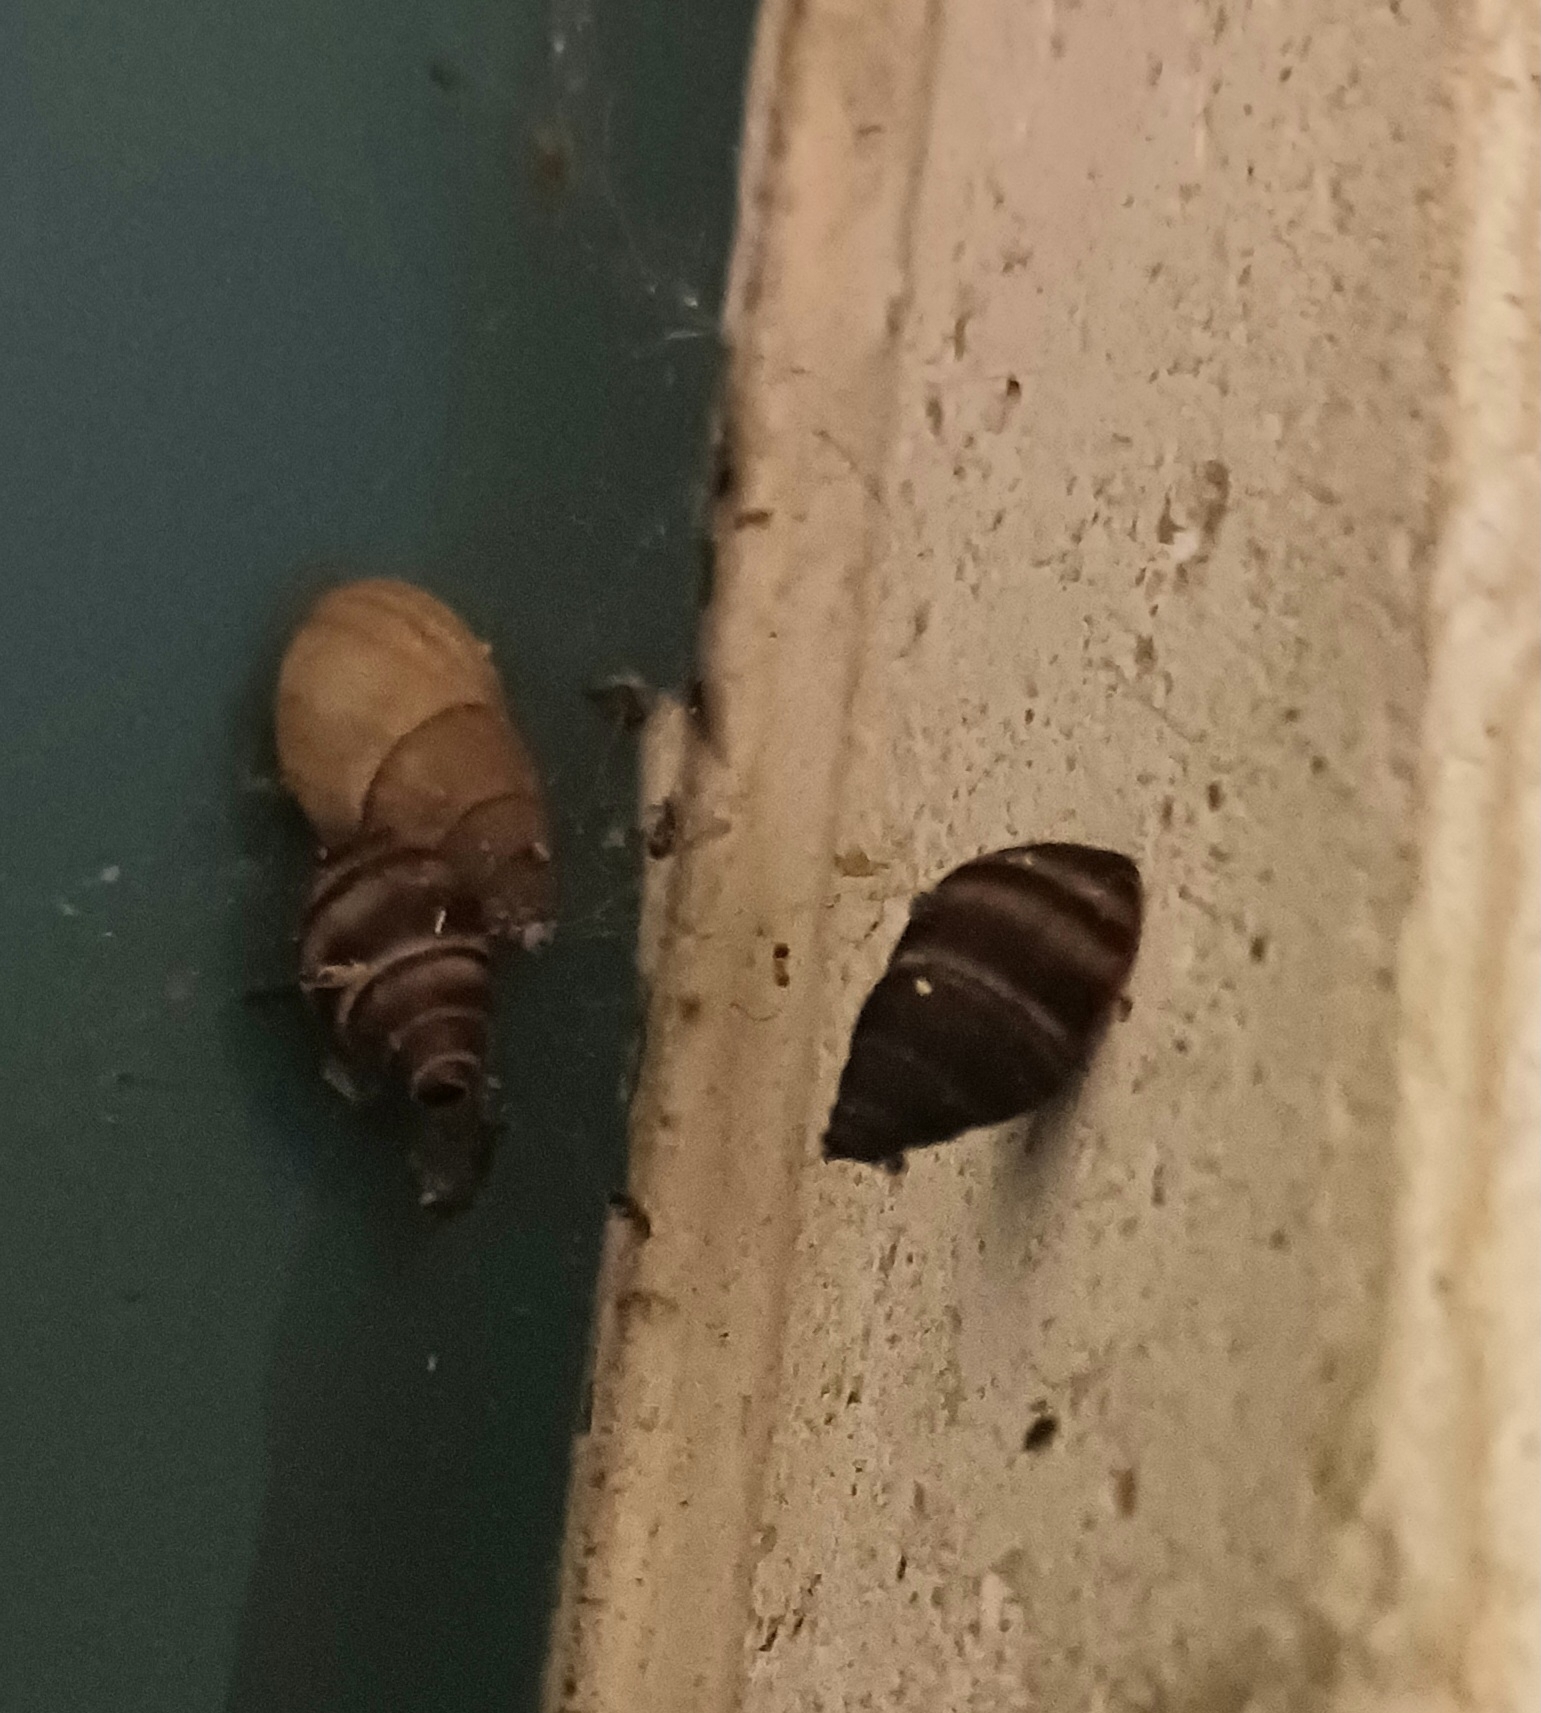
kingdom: Animalia
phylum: Mollusca
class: Gastropoda
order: Stylommatophora
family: Bulimulidae
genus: Bulimulus
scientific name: Bulimulus guadalupensis
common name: West indian bulimulus
